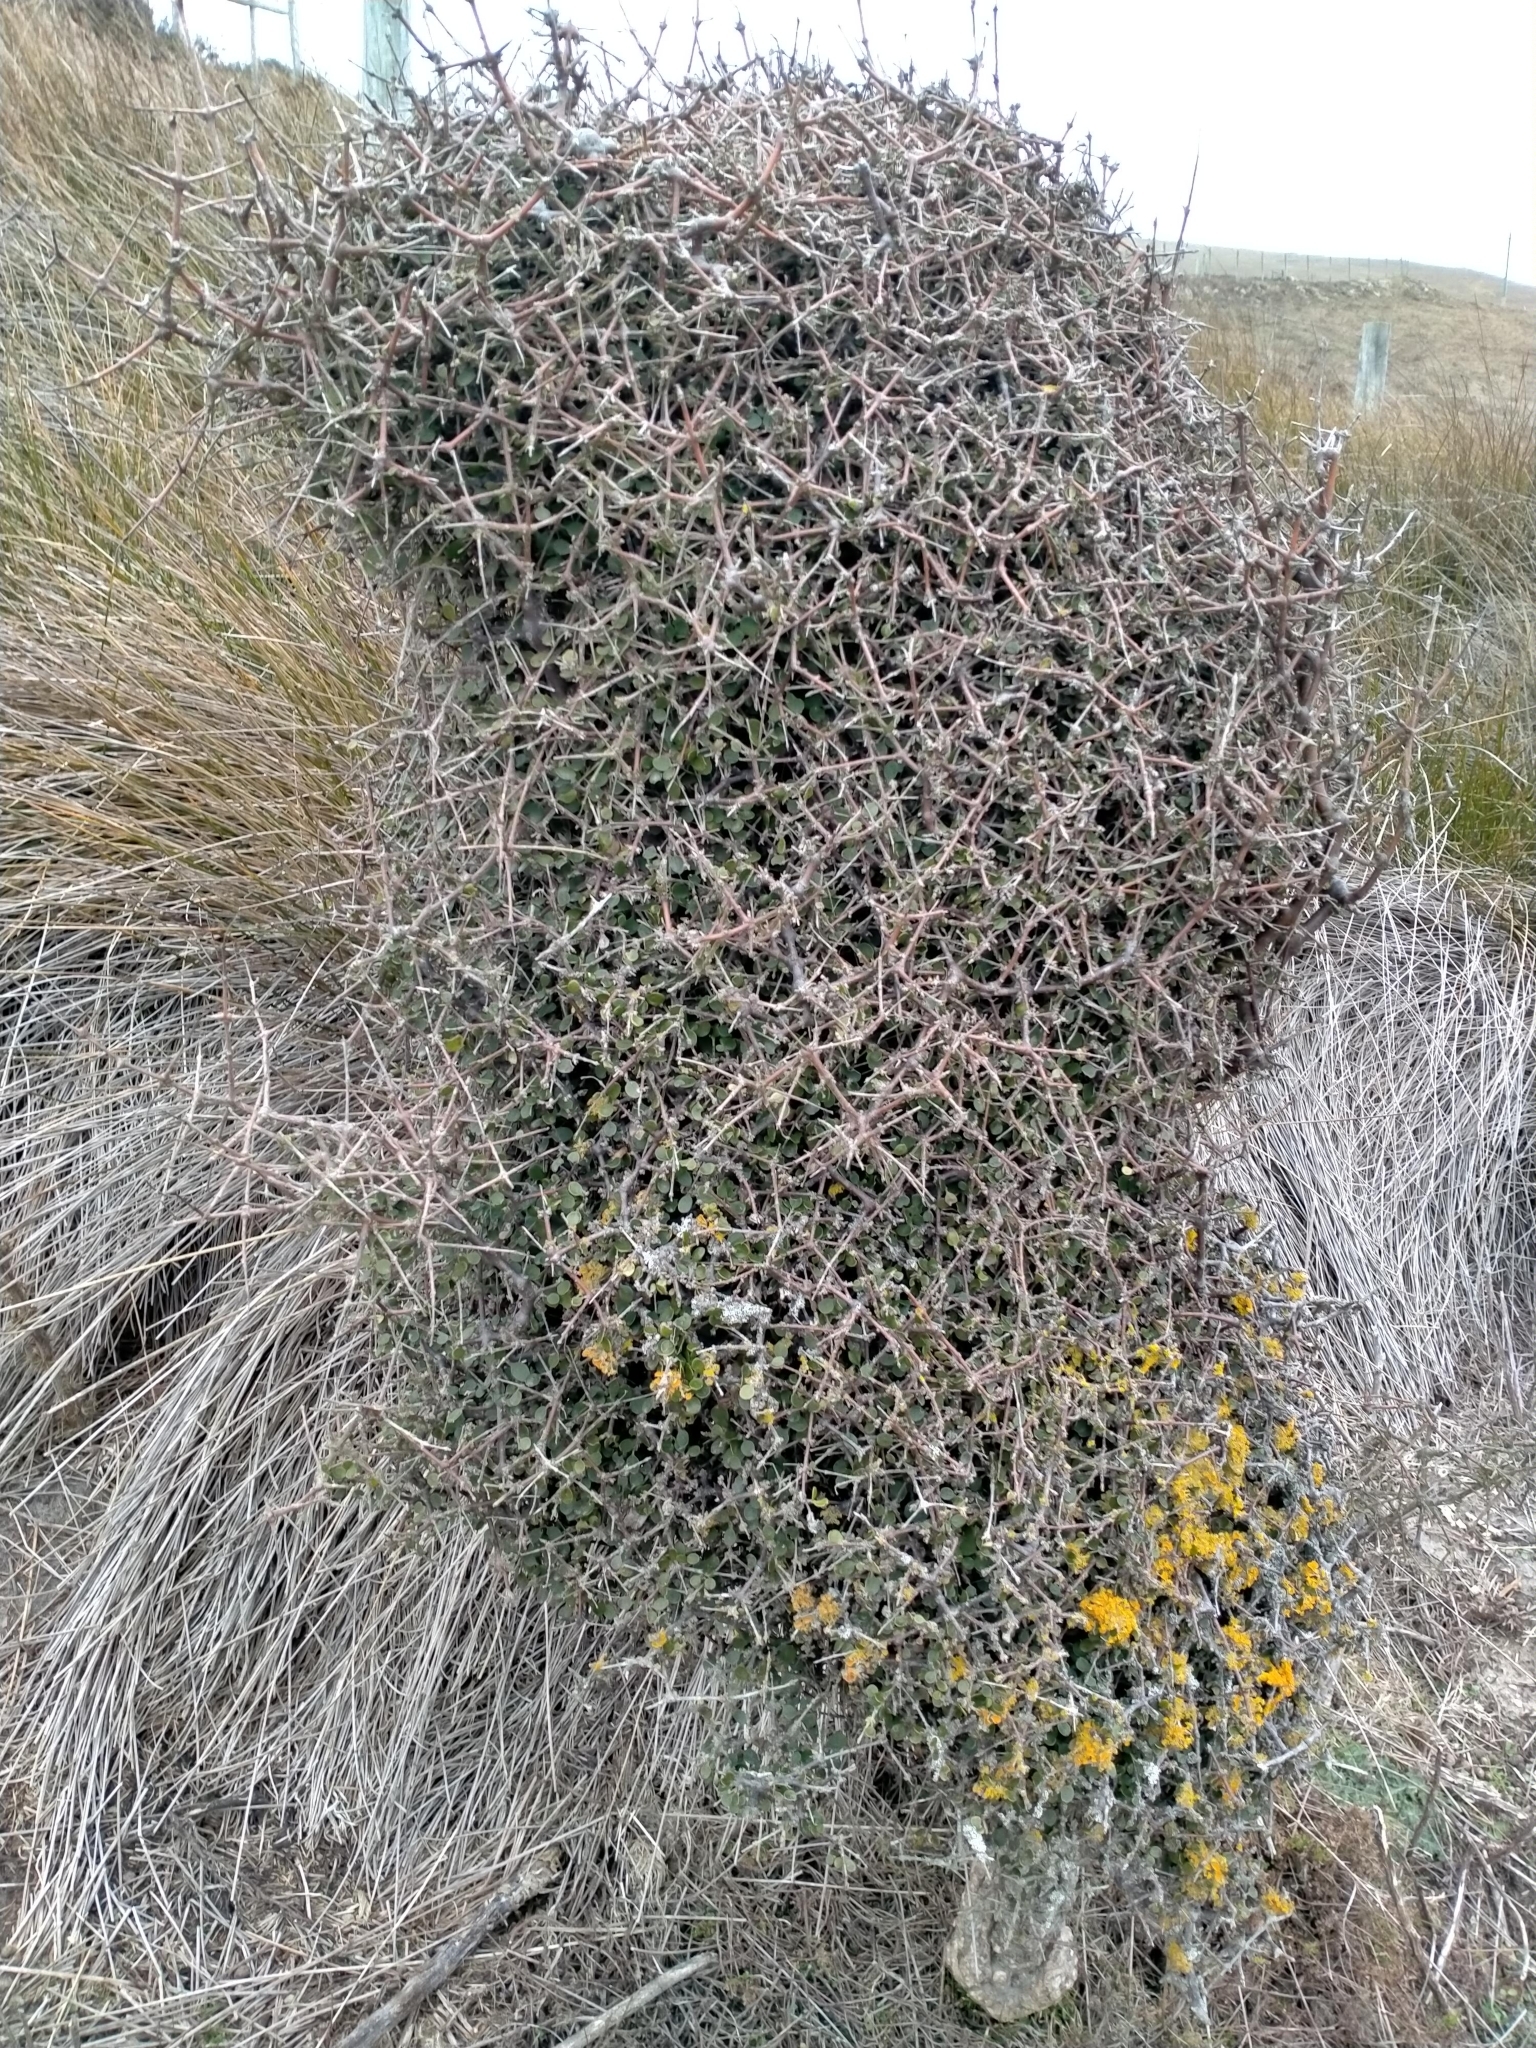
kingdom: Plantae
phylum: Tracheophyta
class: Magnoliopsida
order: Gentianales
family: Rubiaceae
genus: Coprosma
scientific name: Coprosma crassifolia
